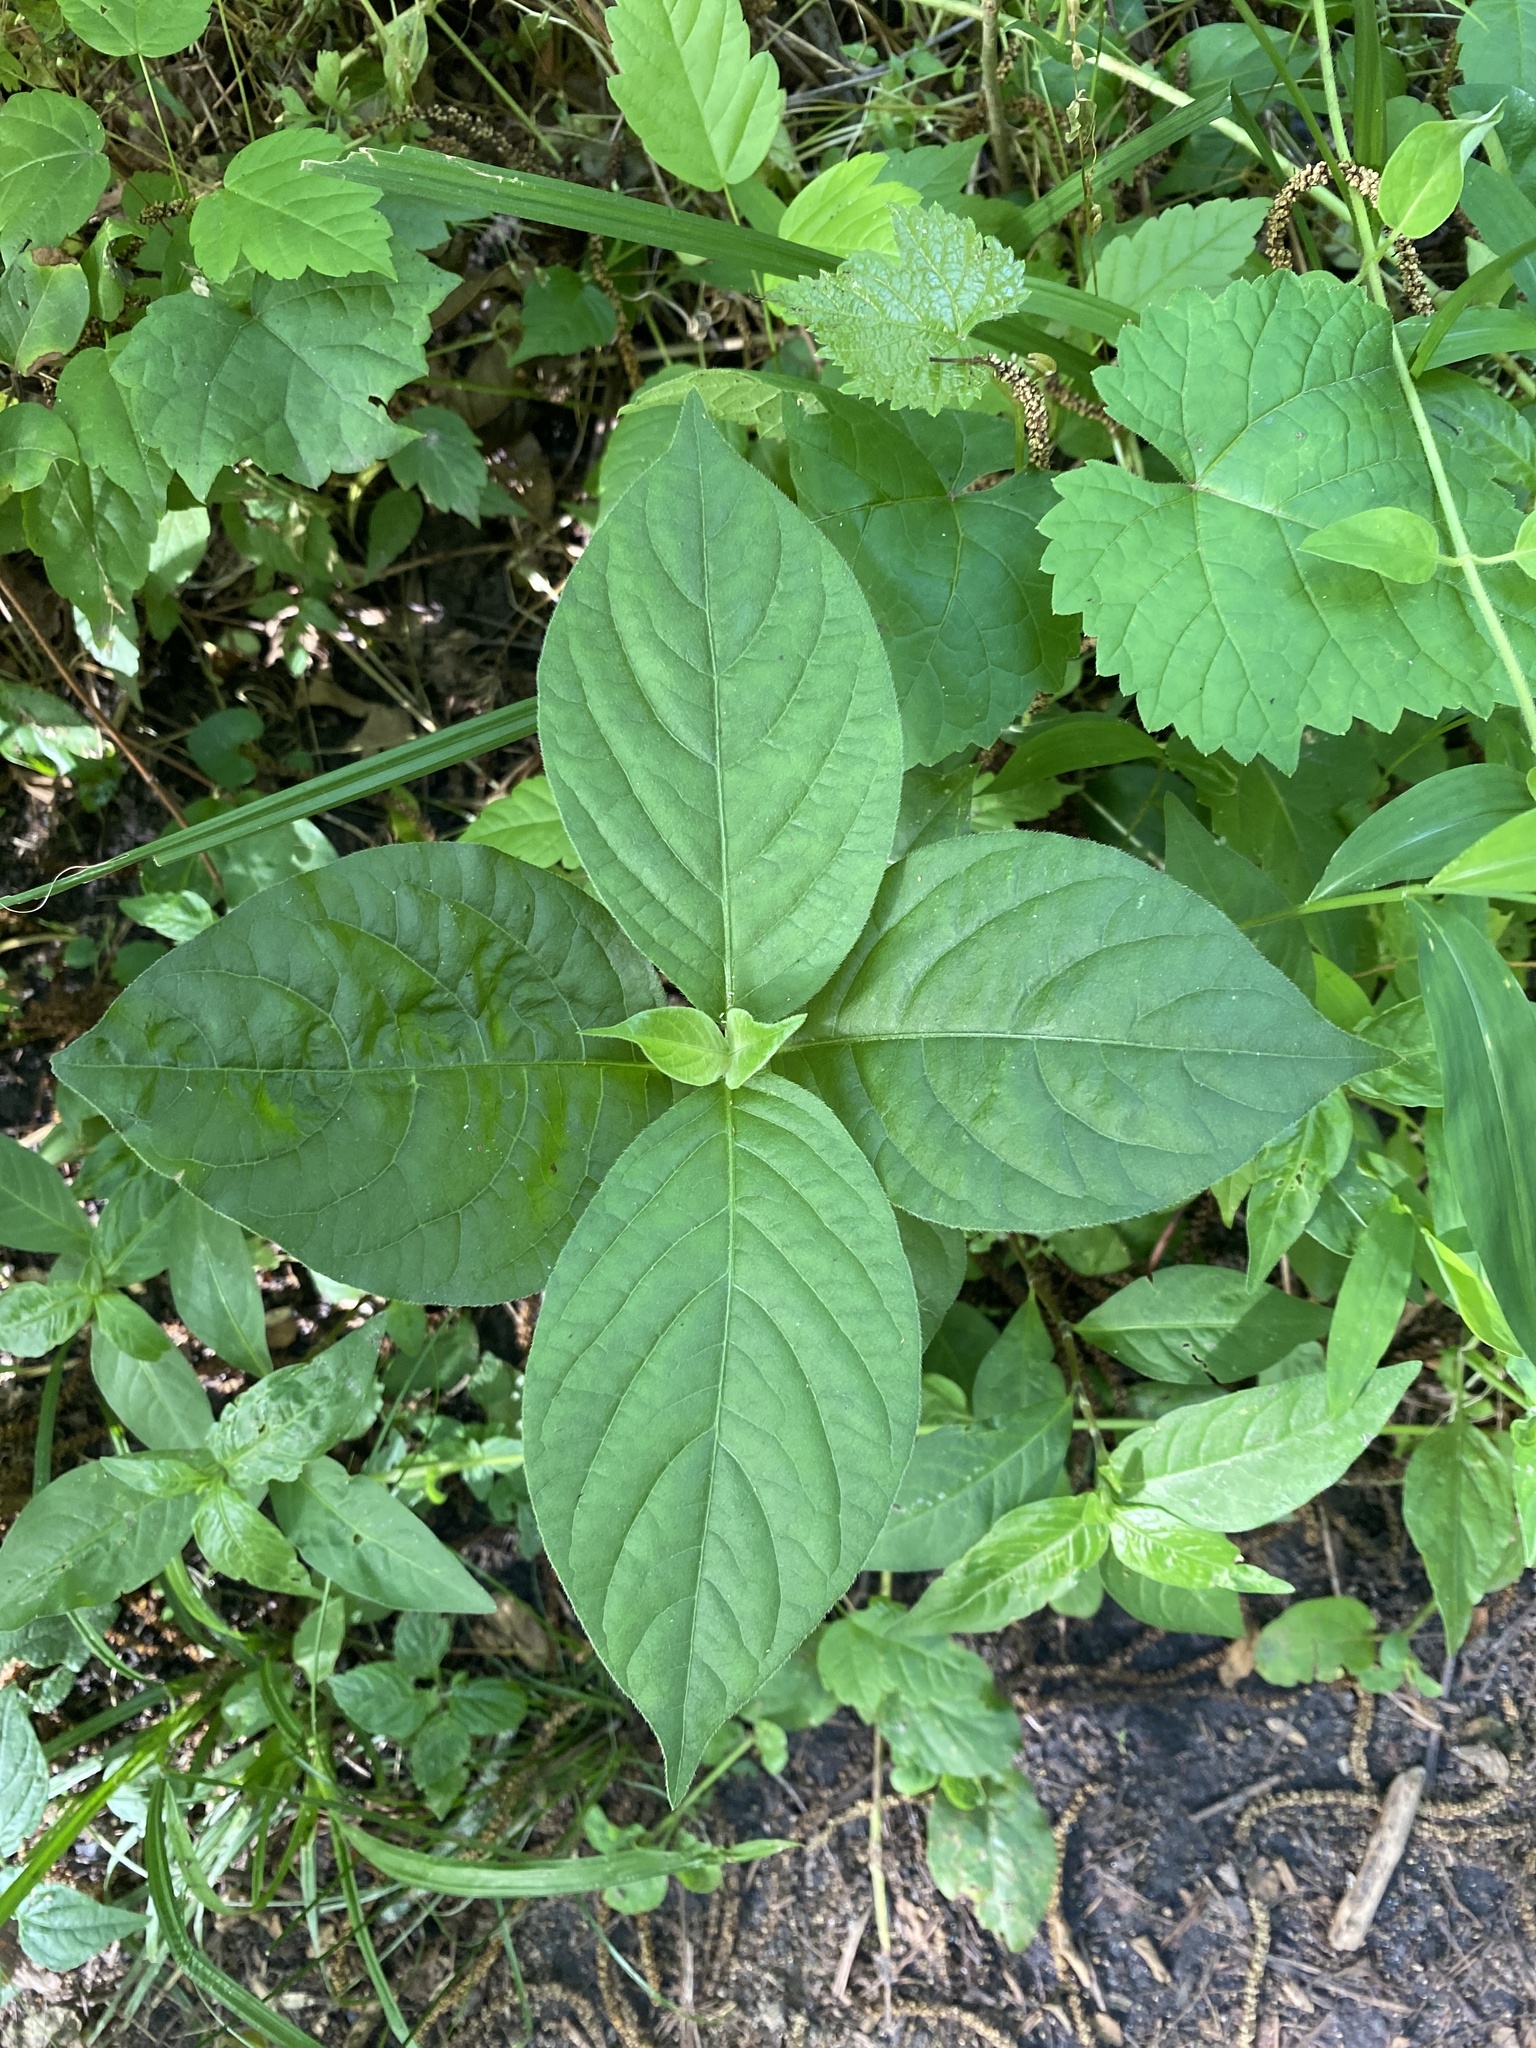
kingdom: Plantae
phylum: Tracheophyta
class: Magnoliopsida
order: Caryophyllales
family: Amaranthaceae
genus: Achyranthes
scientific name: Achyranthes bidentata
